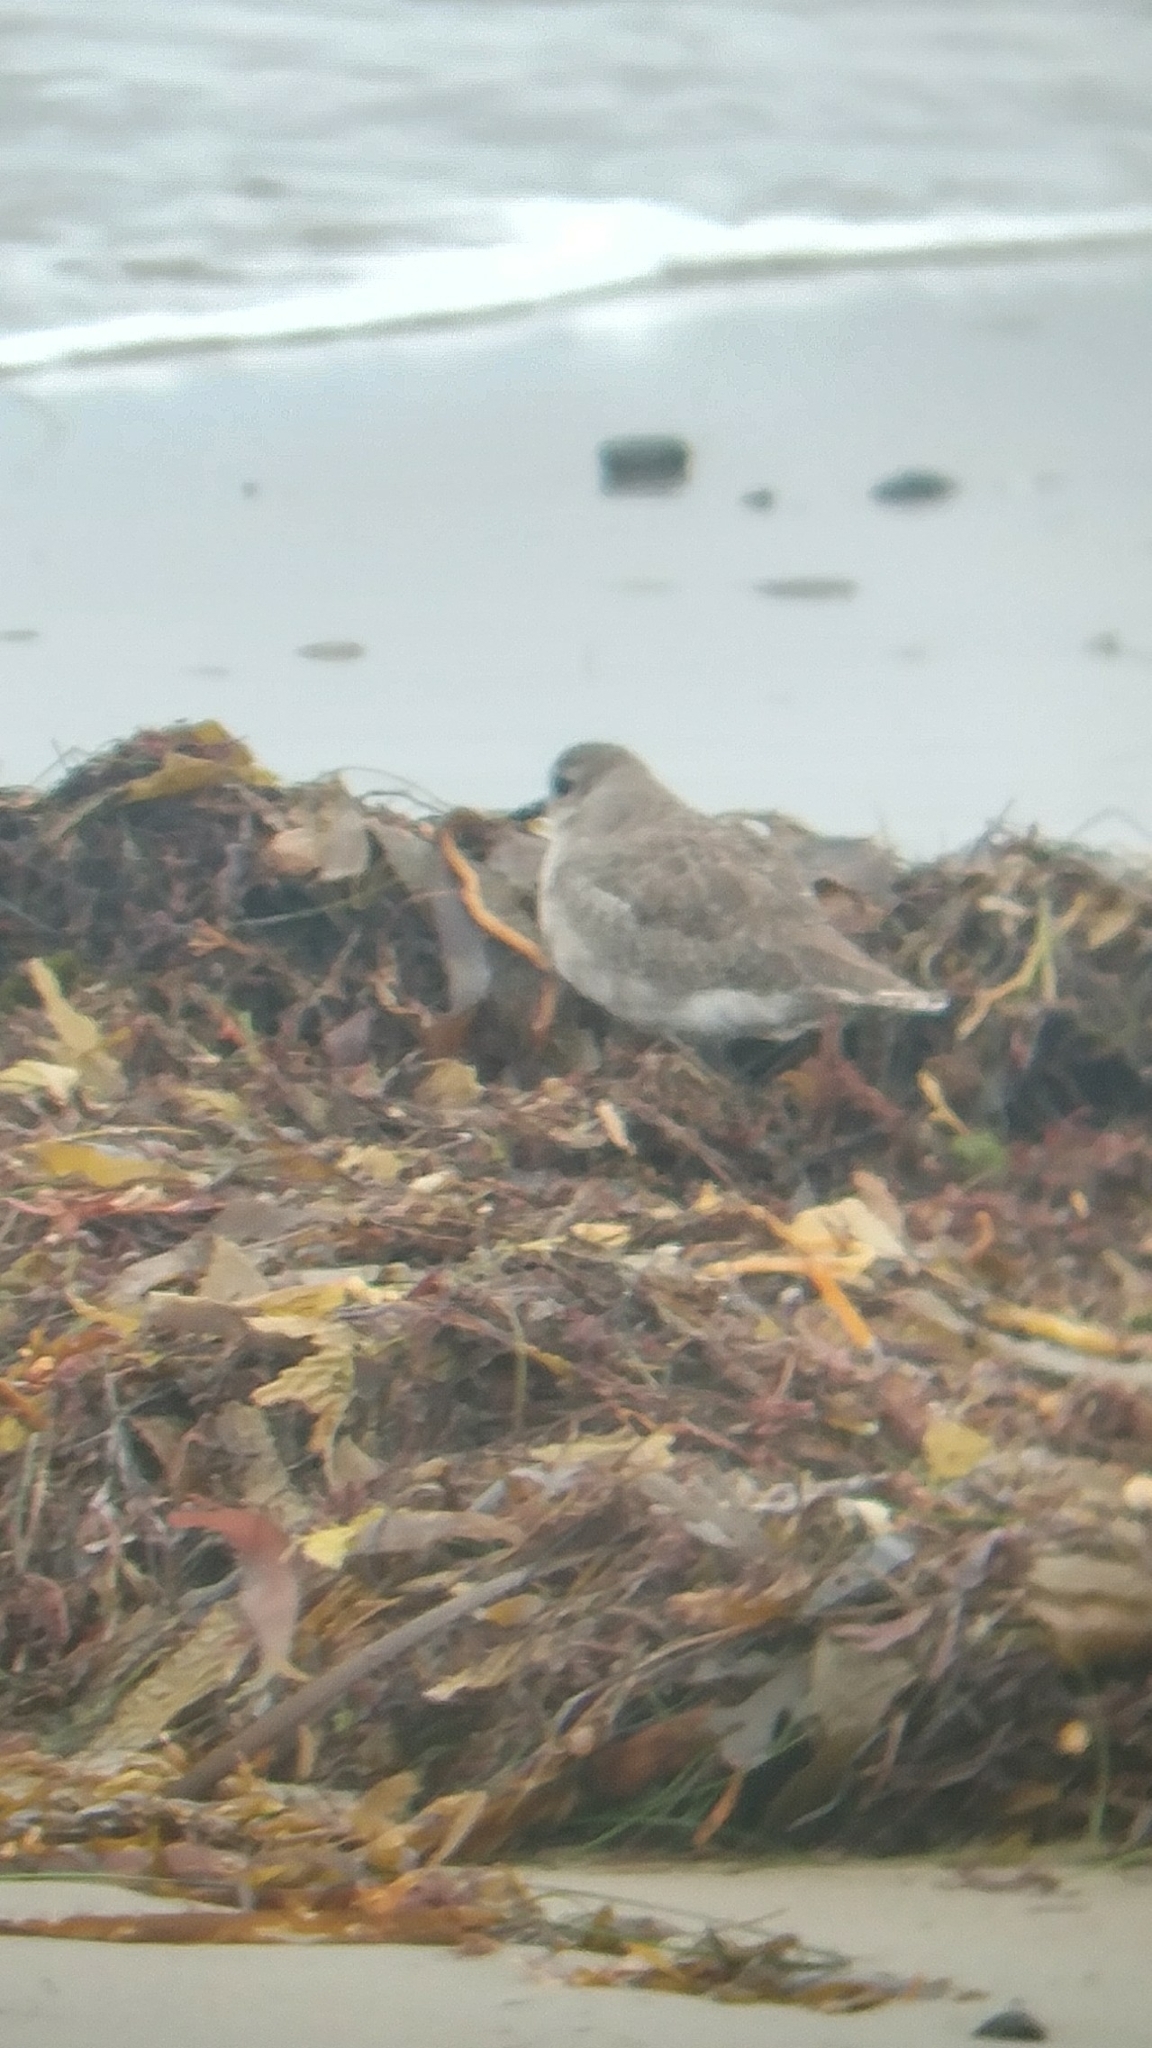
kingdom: Animalia
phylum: Chordata
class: Aves
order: Charadriiformes
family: Charadriidae
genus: Pluvialis
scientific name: Pluvialis squatarola
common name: Grey plover
